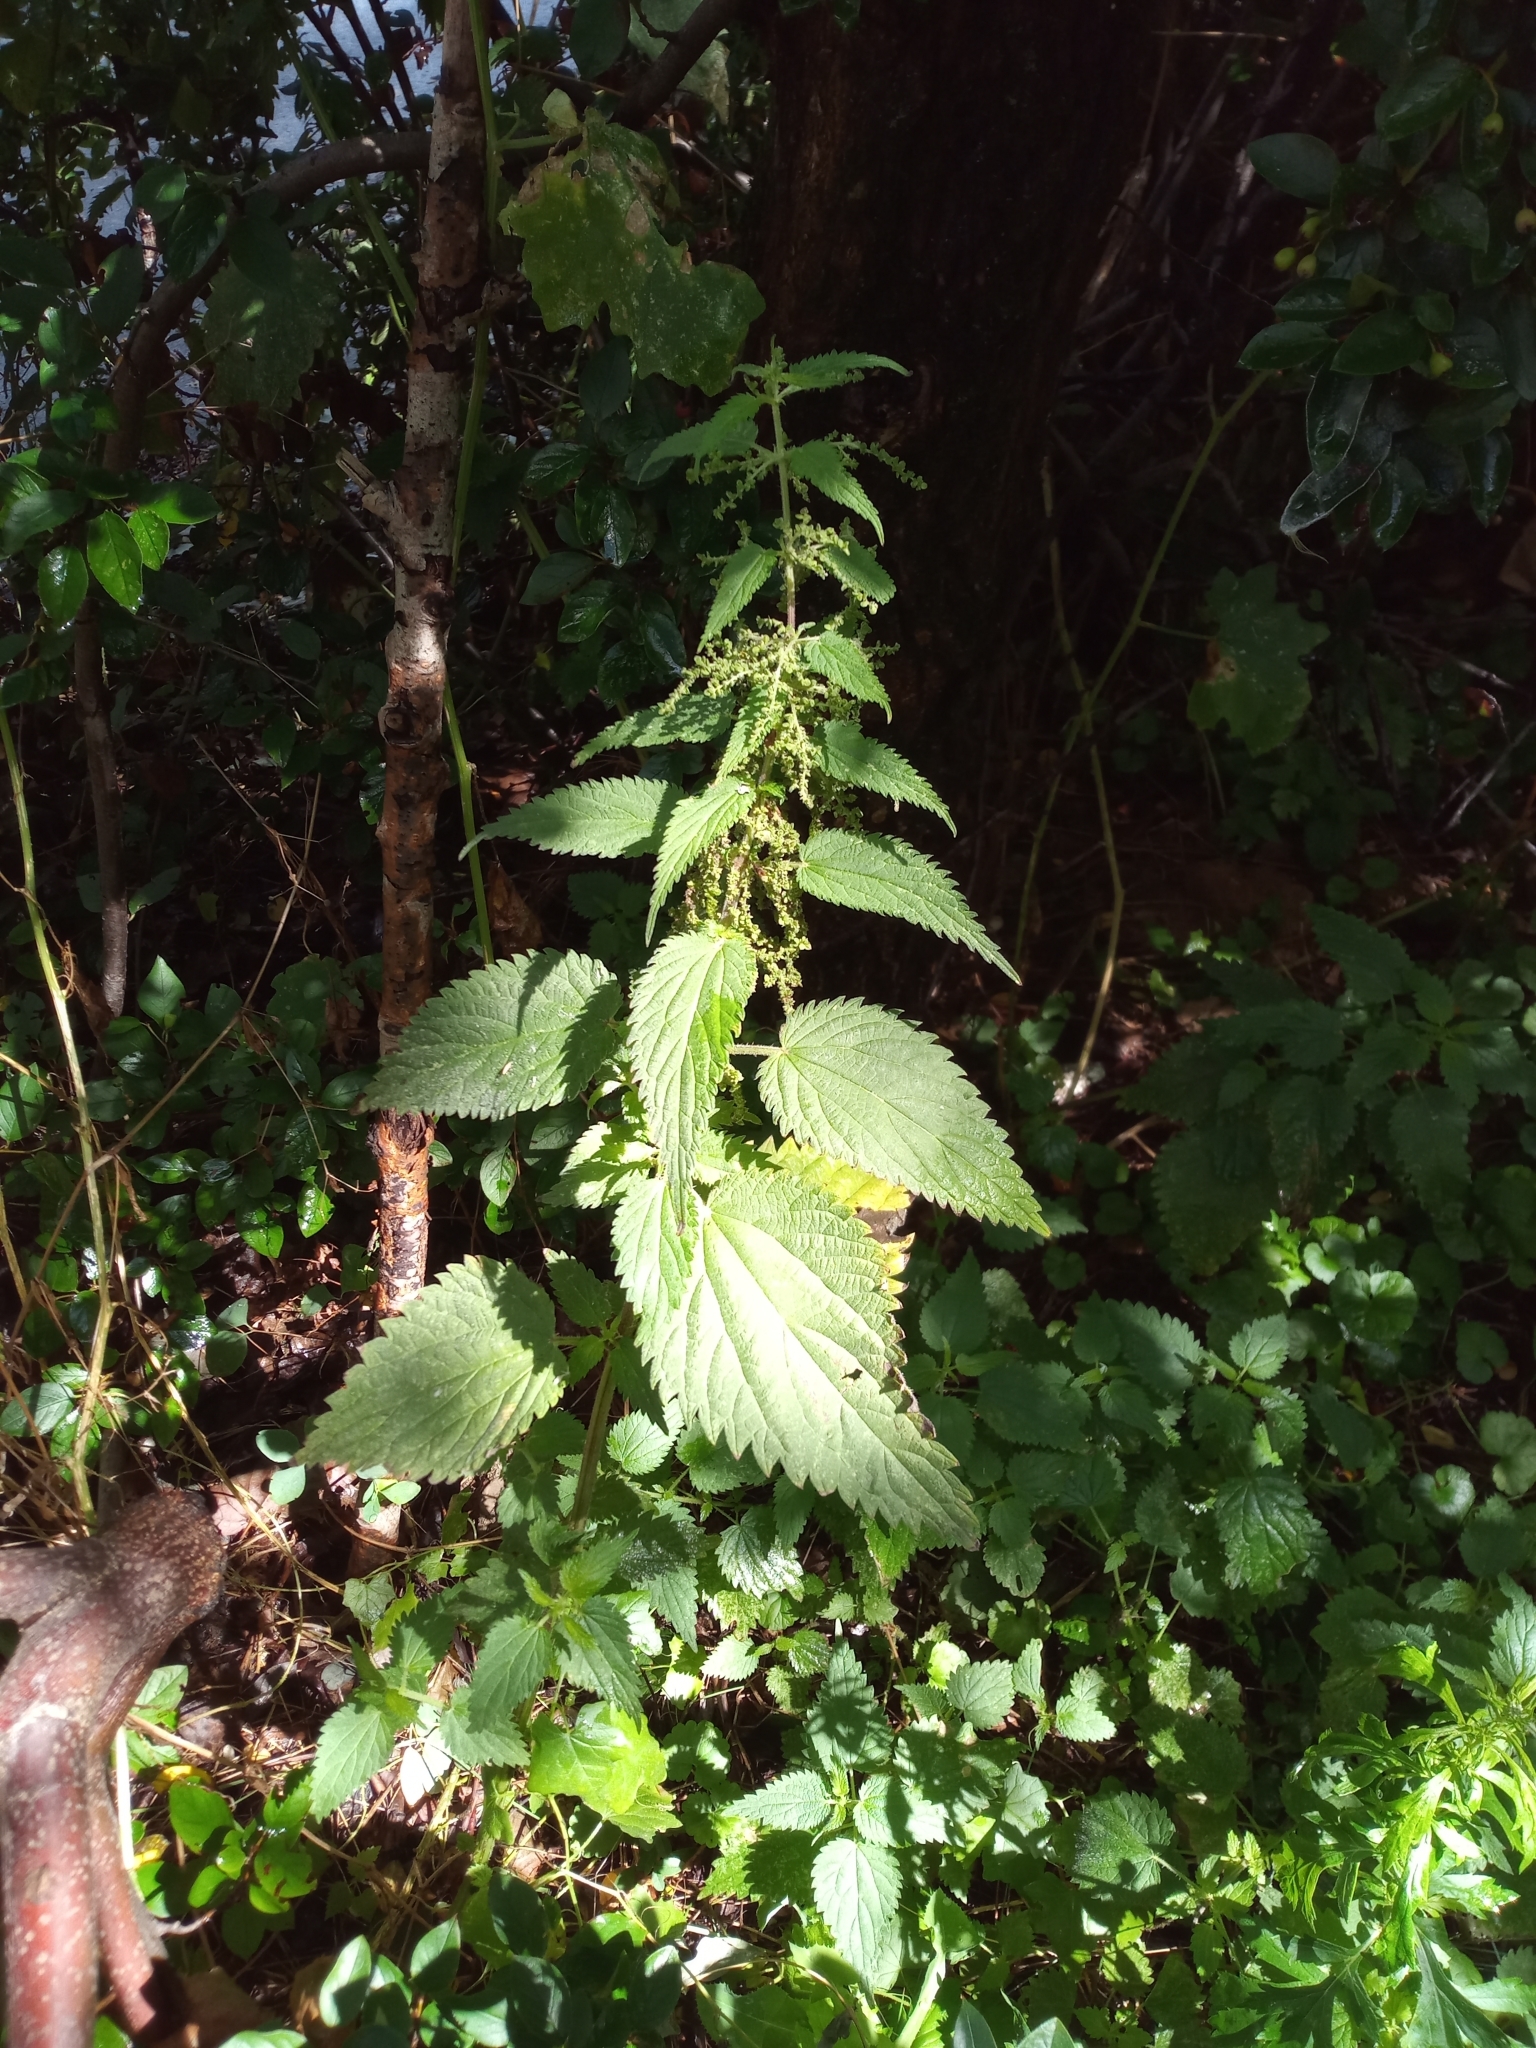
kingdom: Plantae
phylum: Tracheophyta
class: Magnoliopsida
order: Rosales
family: Urticaceae
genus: Urtica
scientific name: Urtica dioica
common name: Common nettle
